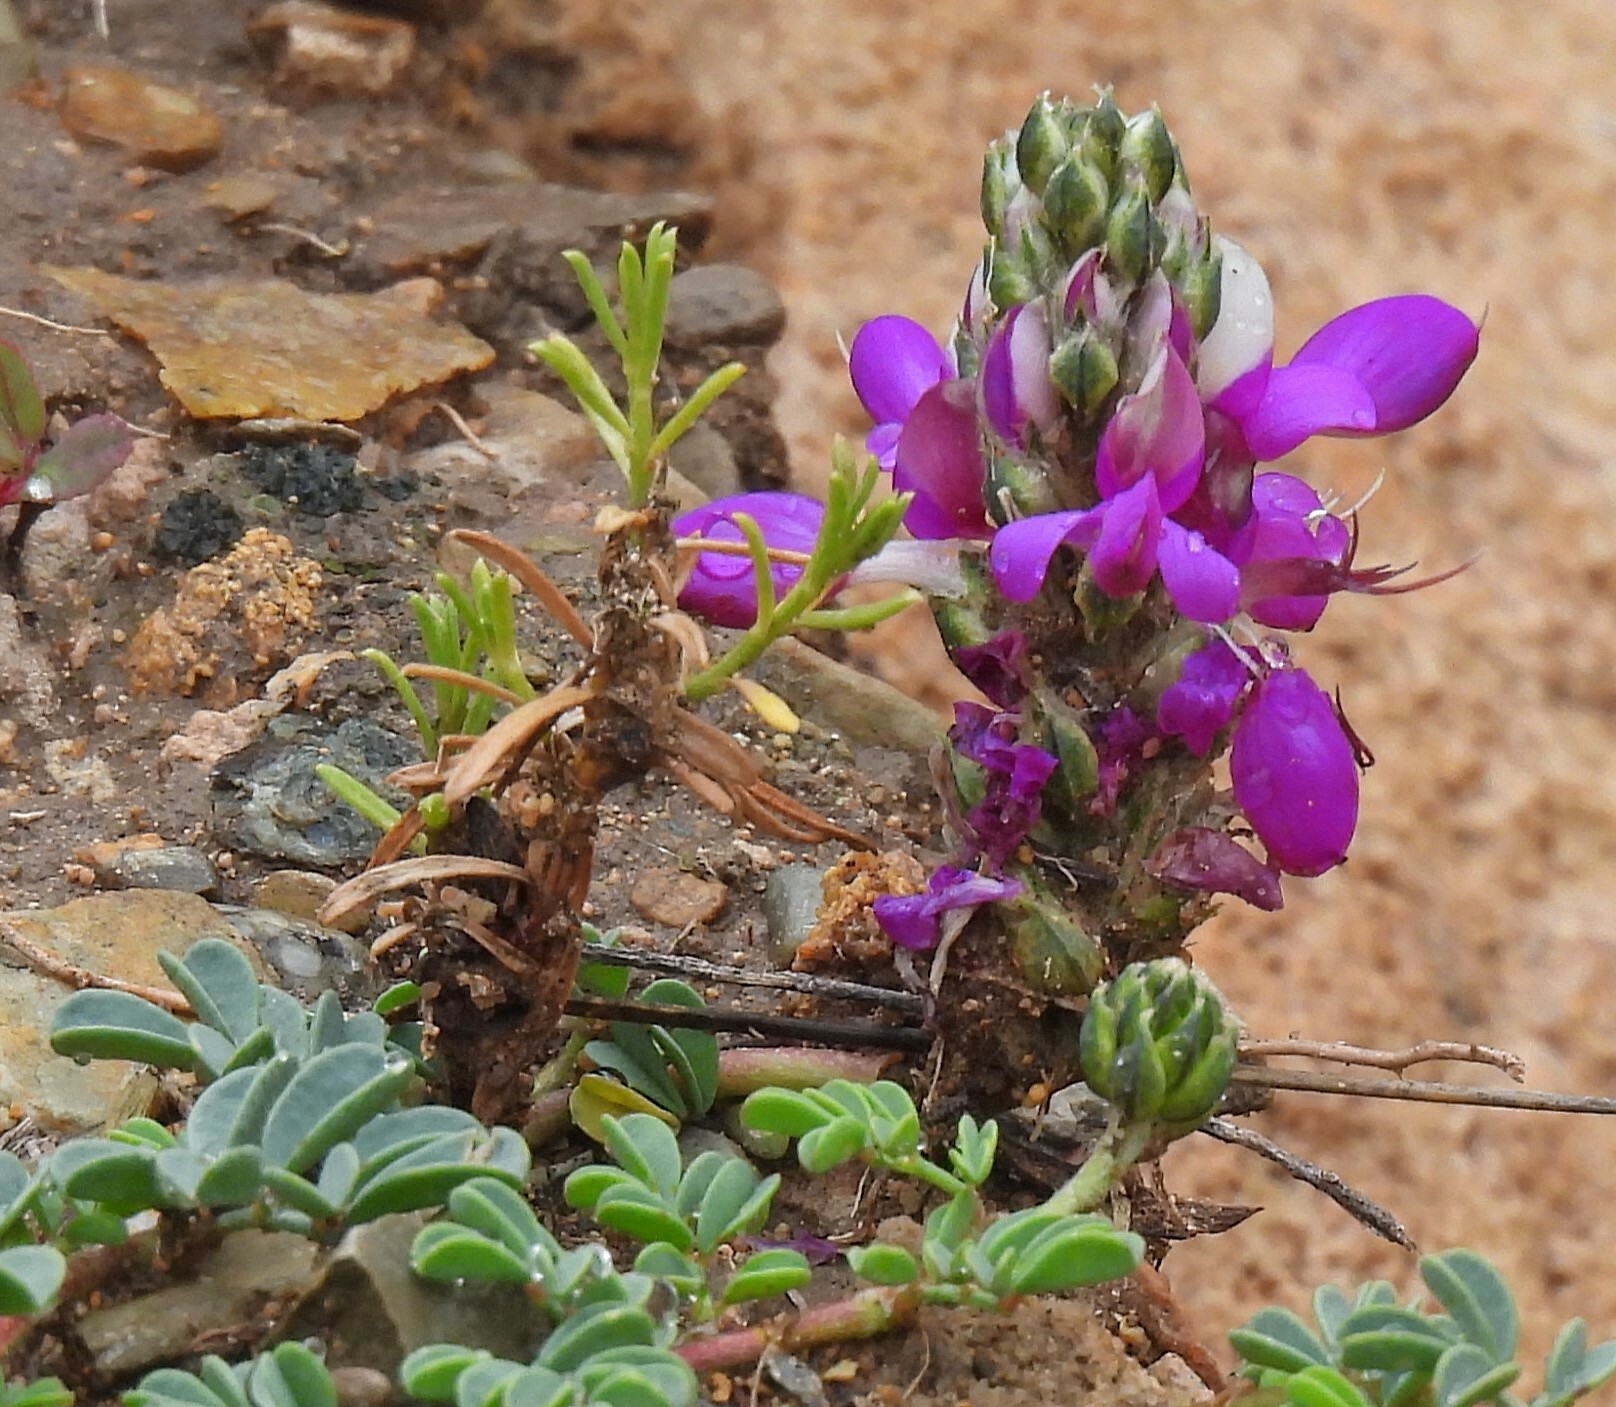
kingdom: Plantae
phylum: Tracheophyta
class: Magnoliopsida
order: Fabales
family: Fabaceae
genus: Dalea
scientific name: Dalea boliviana
